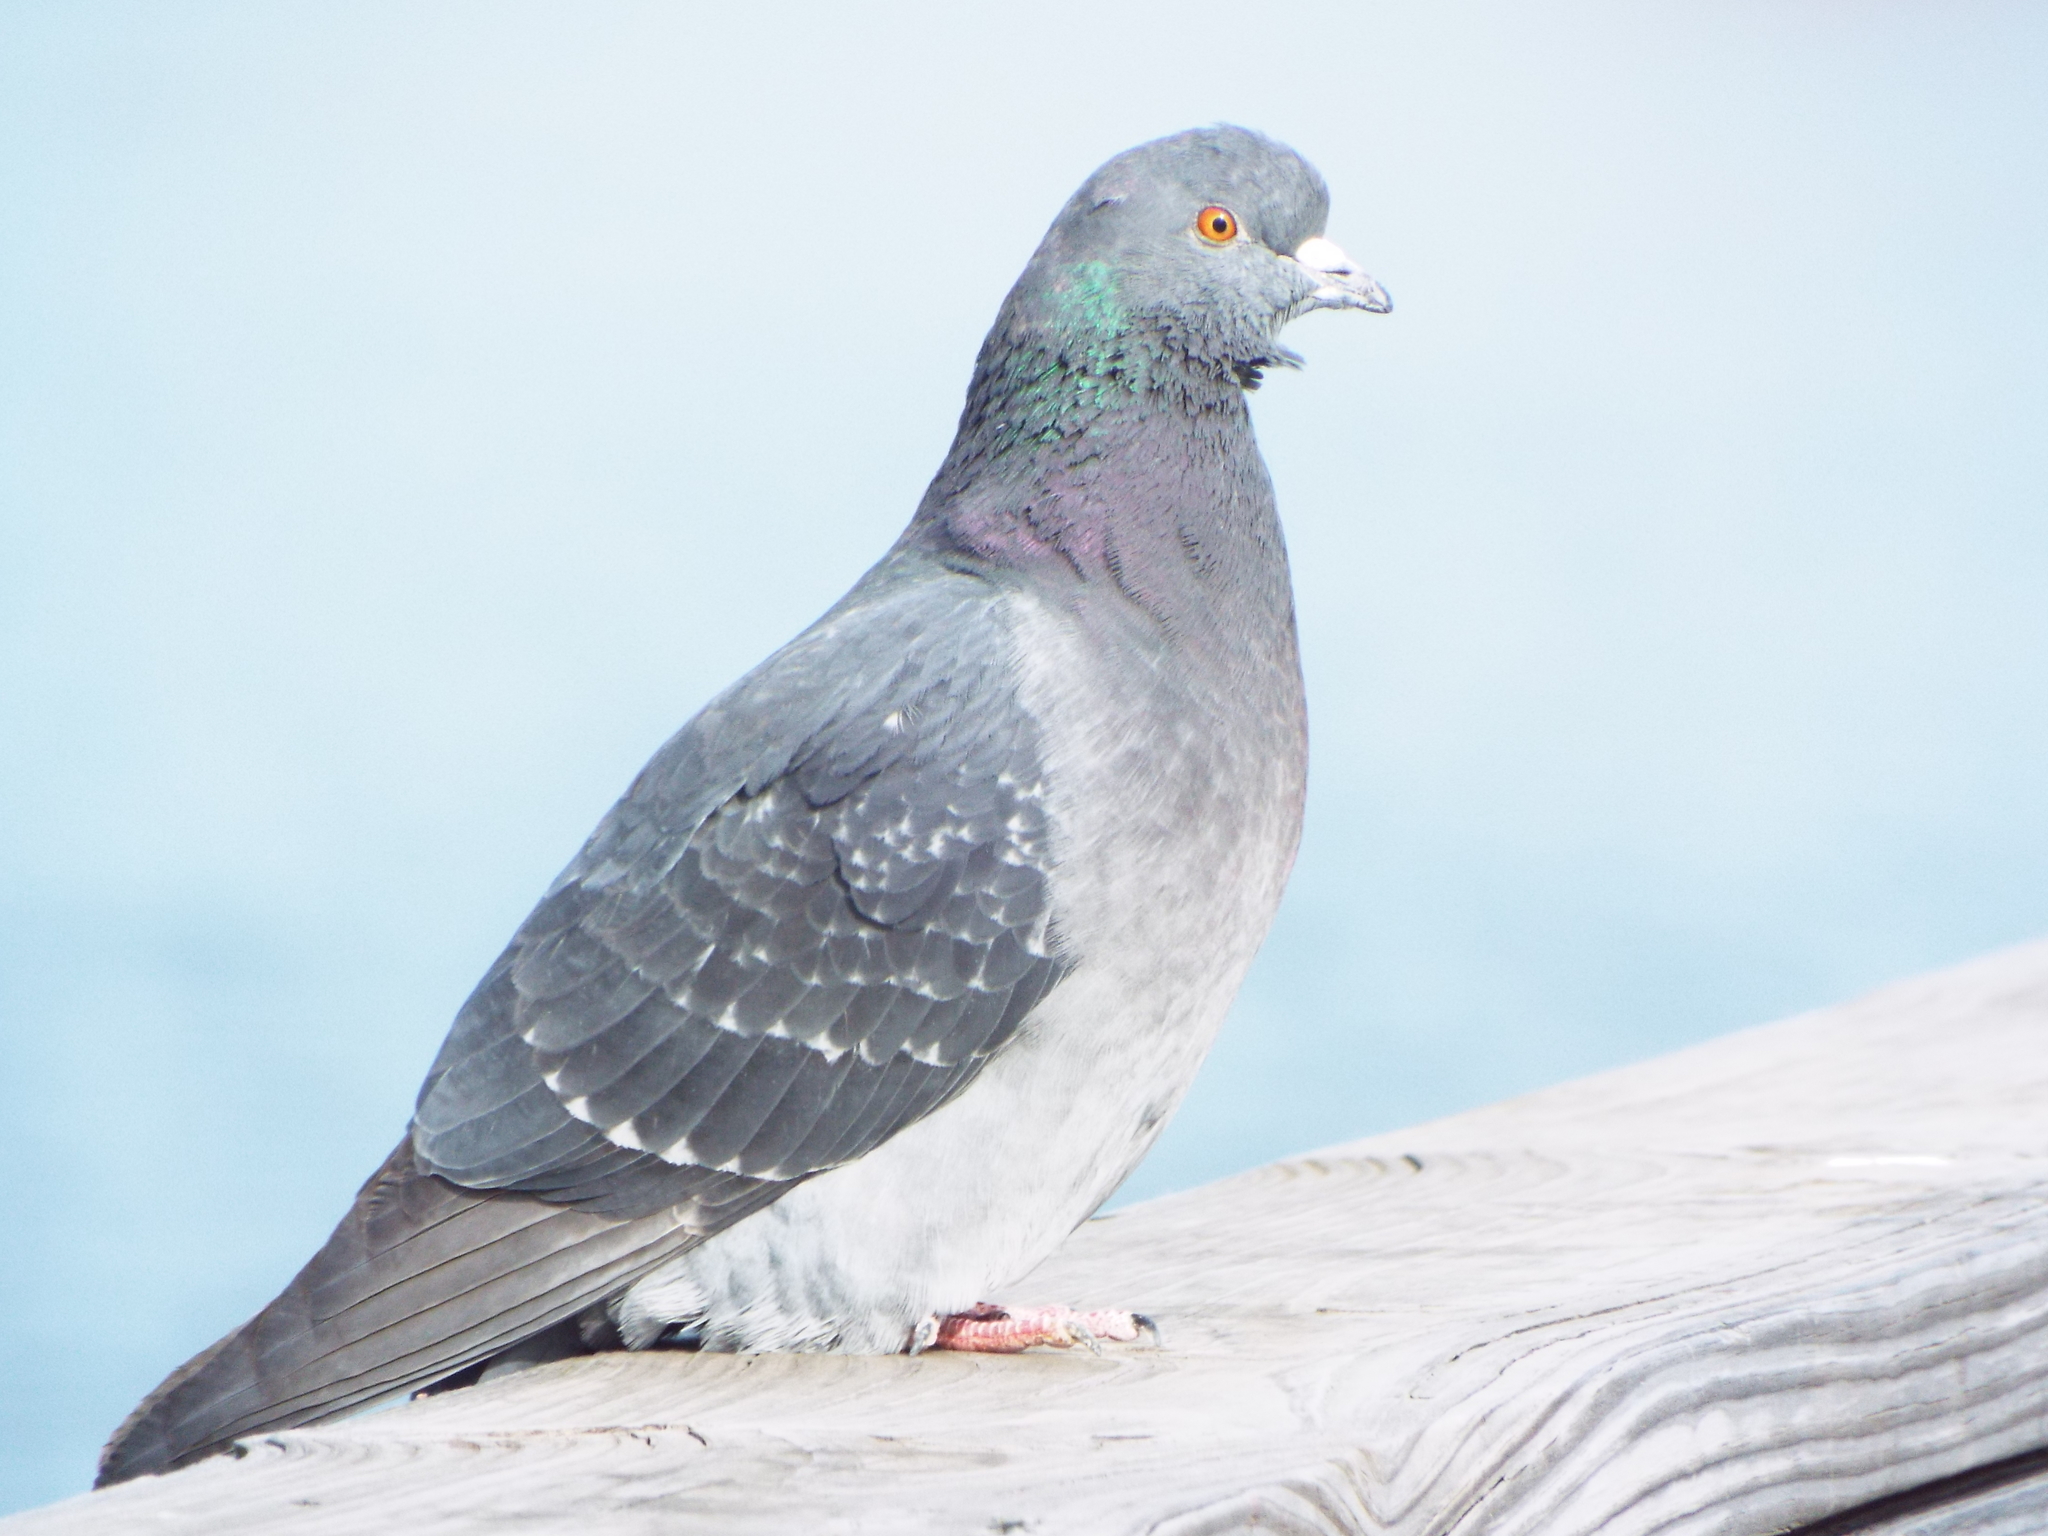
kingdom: Animalia
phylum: Chordata
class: Aves
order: Columbiformes
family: Columbidae
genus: Columba
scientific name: Columba livia
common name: Rock pigeon
